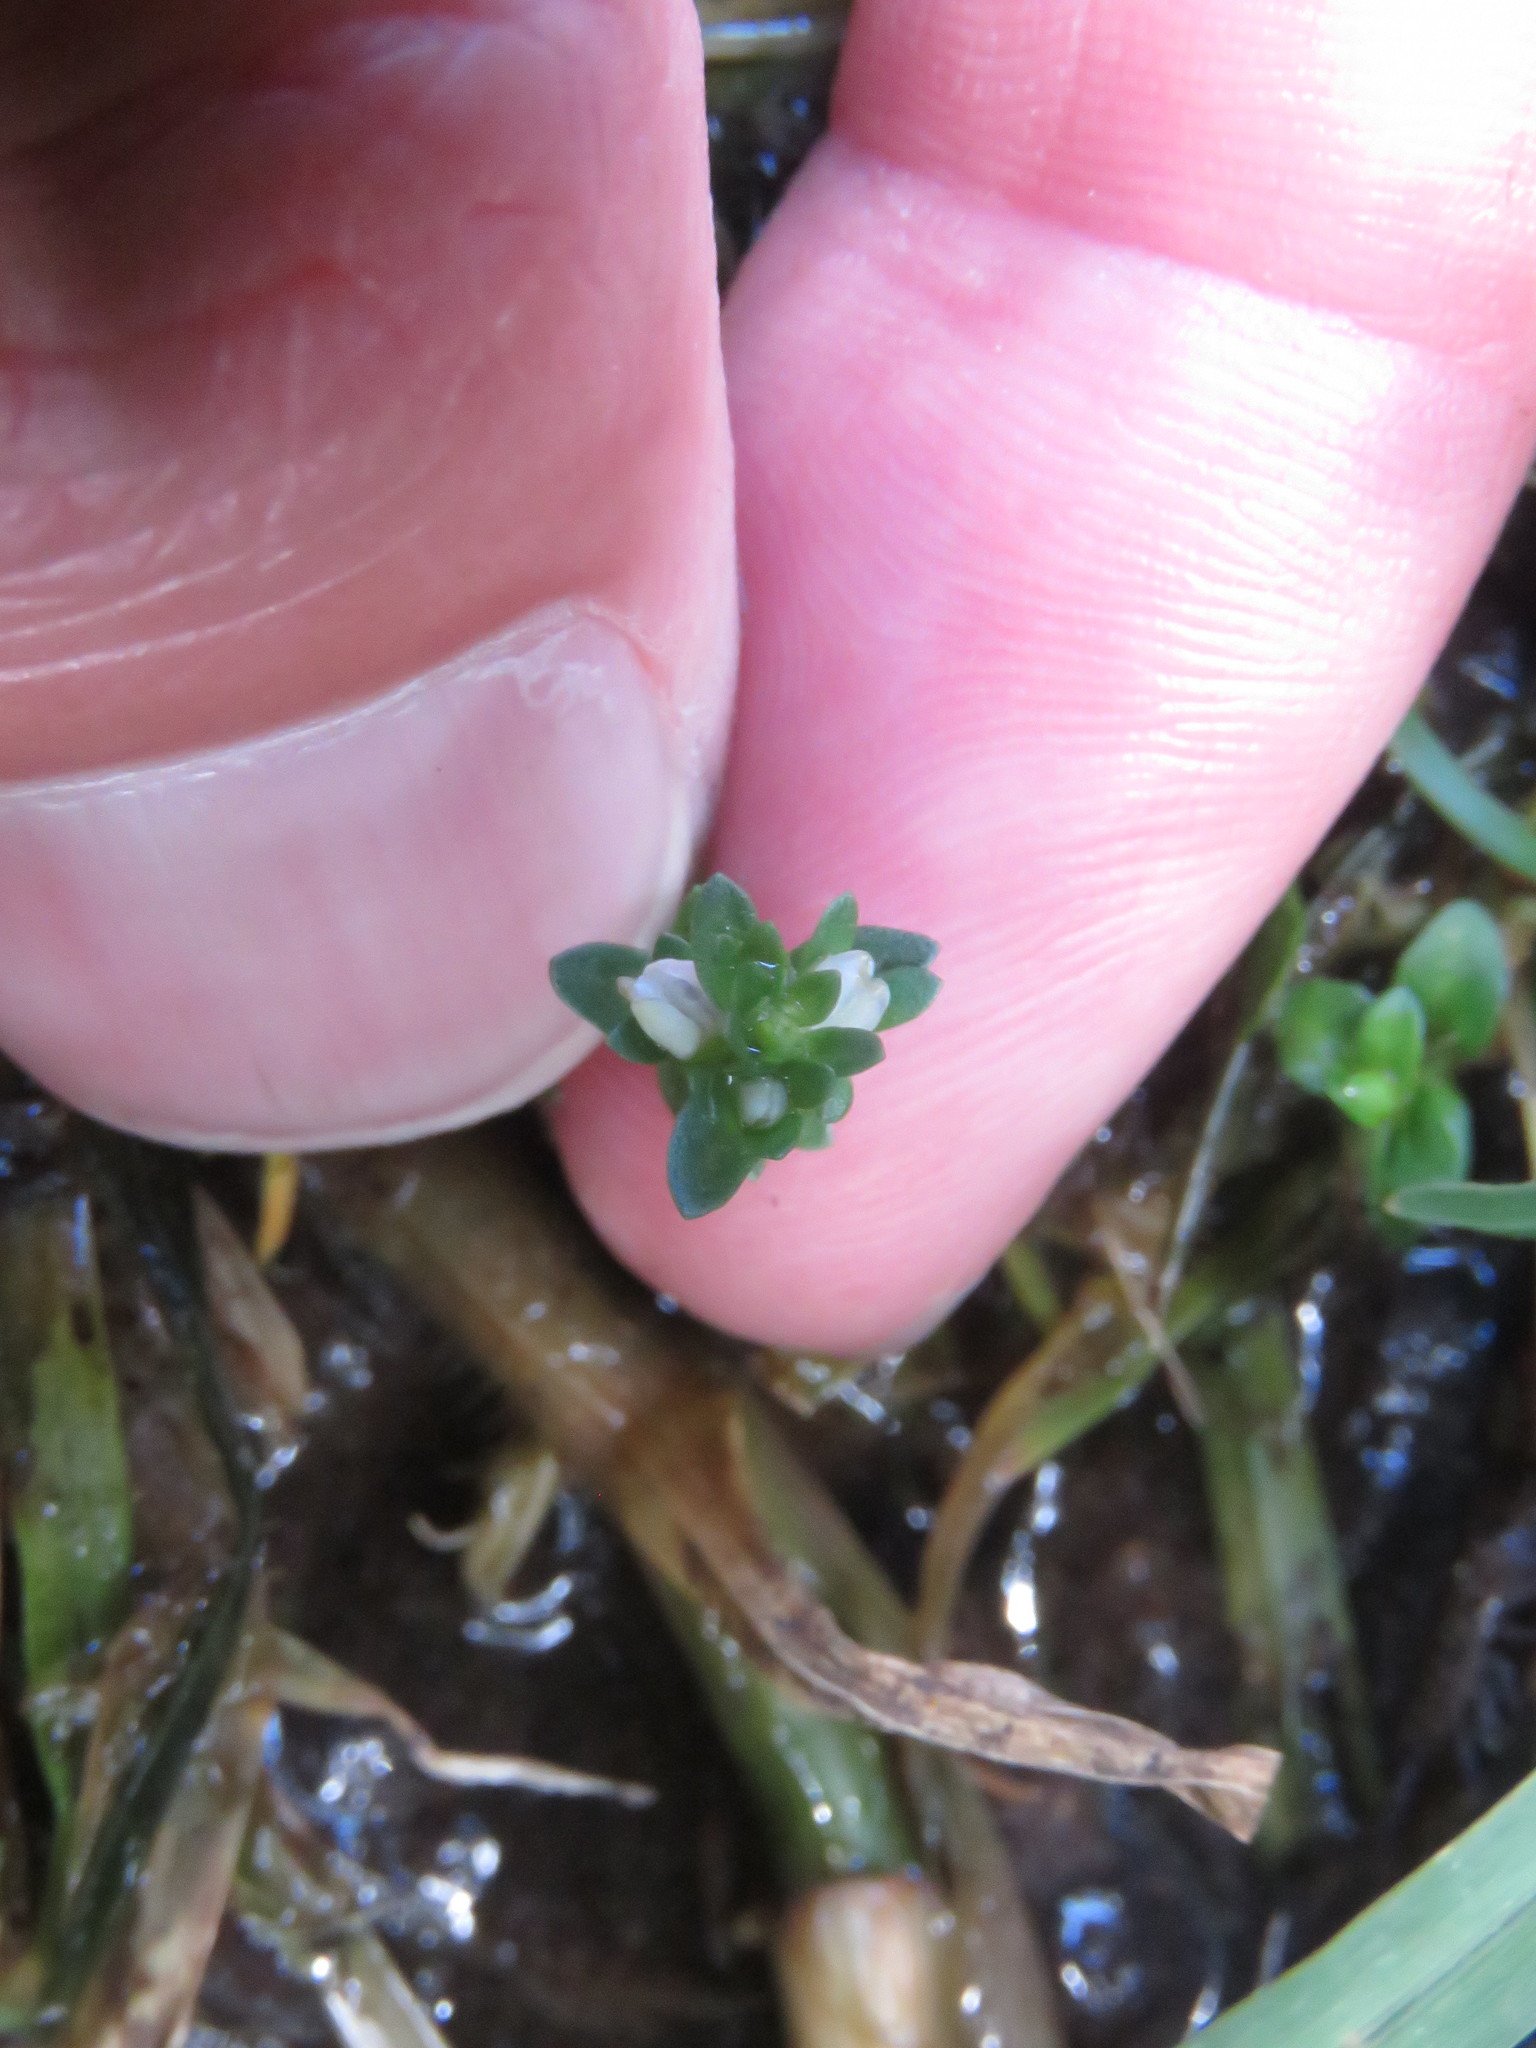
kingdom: Plantae
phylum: Tracheophyta
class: Magnoliopsida
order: Lamiales
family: Plantaginaceae
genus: Veronica
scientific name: Veronica serpyllifolia
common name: Thyme-leaved speedwell
